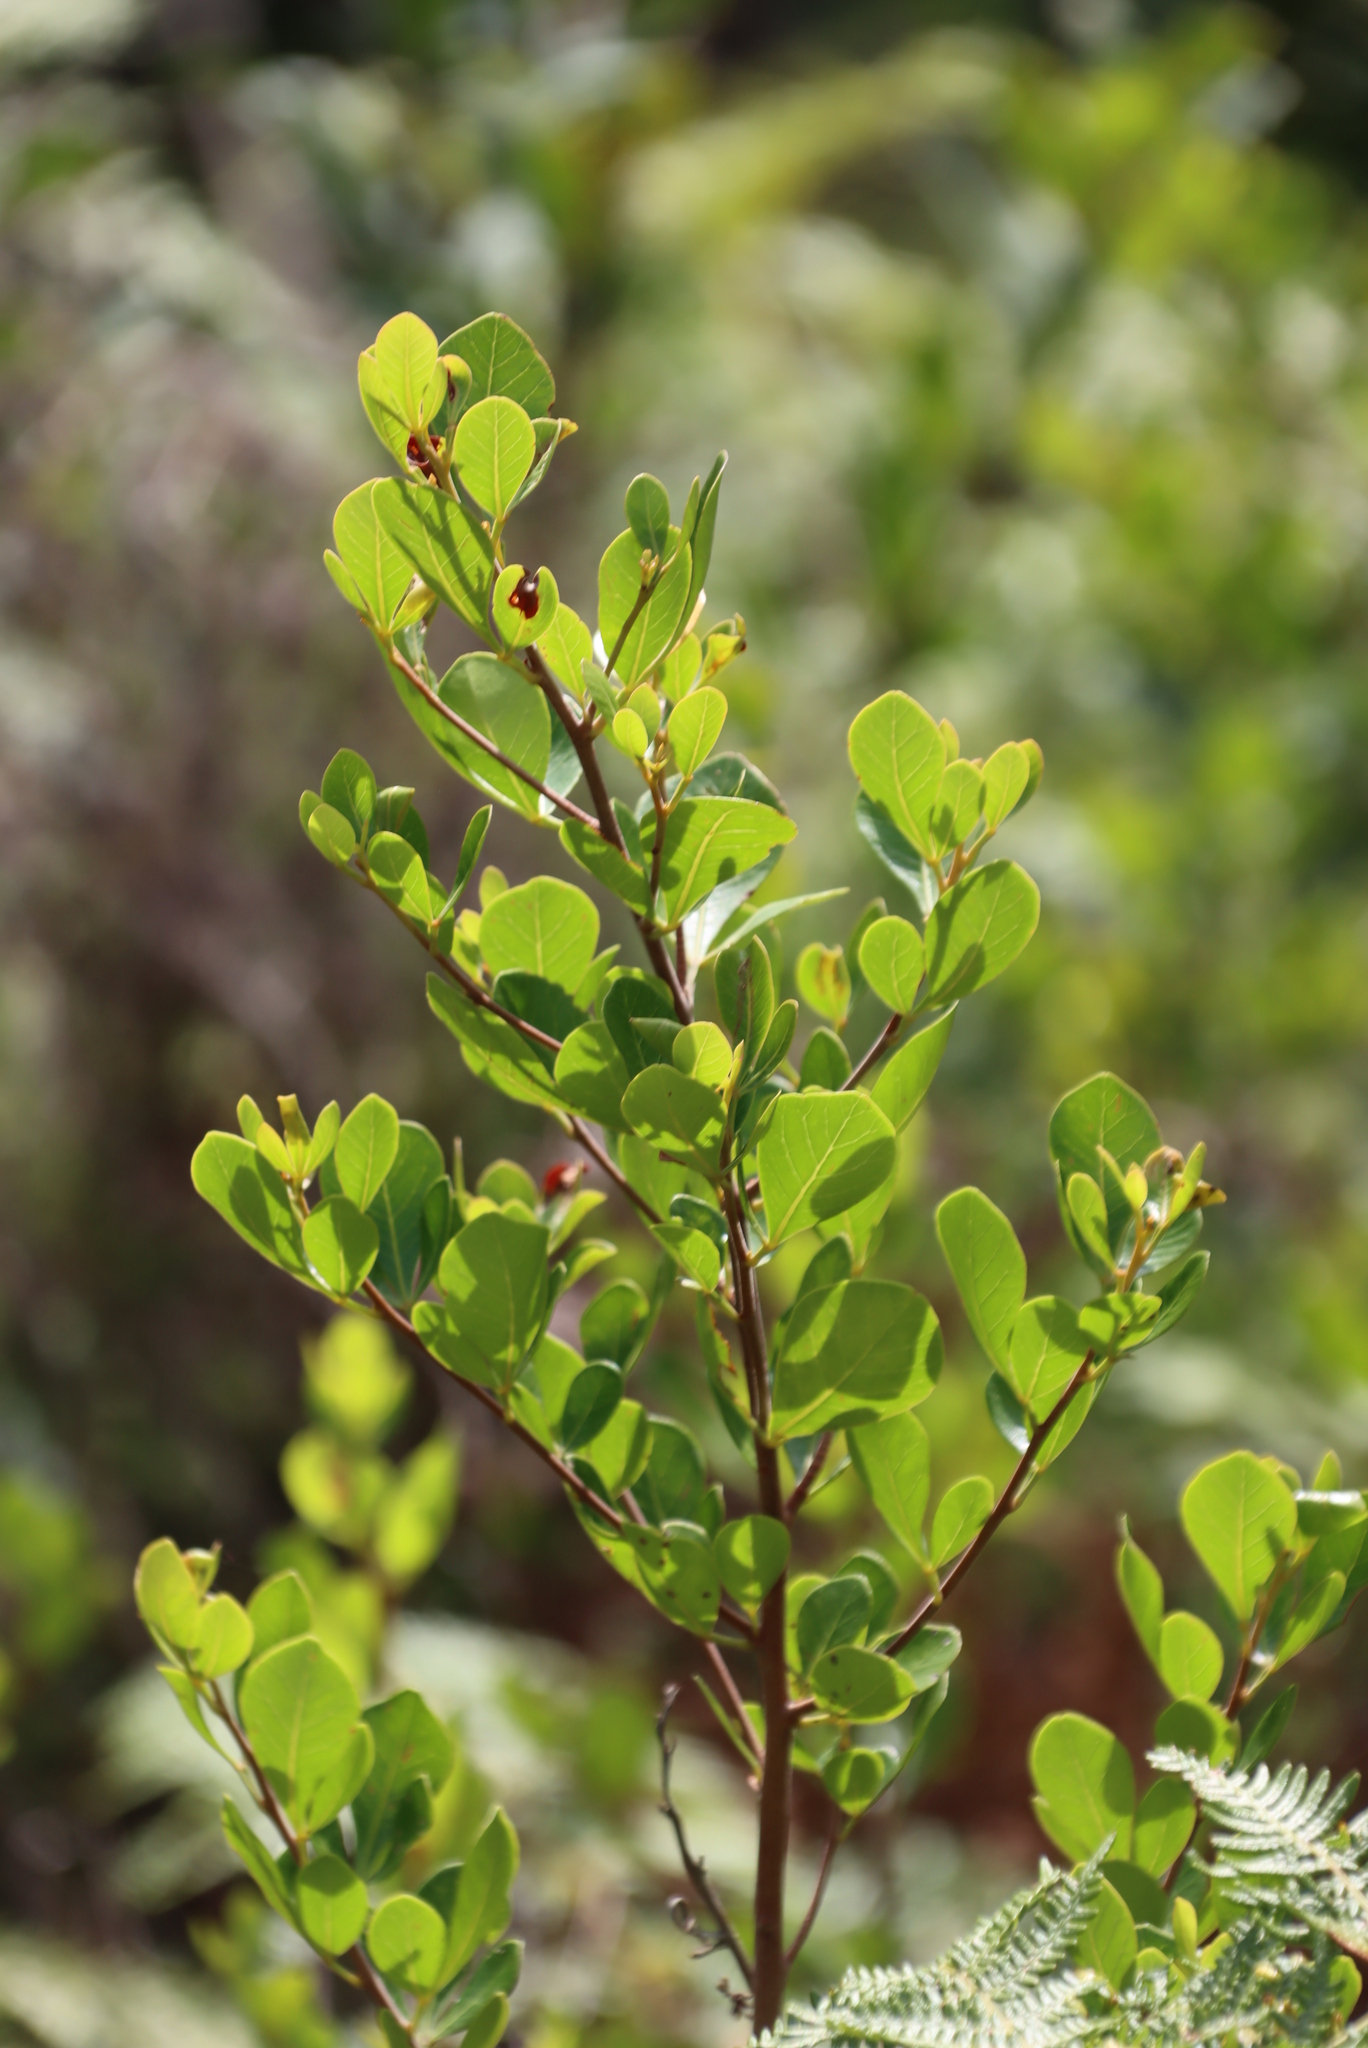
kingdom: Plantae
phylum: Tracheophyta
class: Magnoliopsida
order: Sapindales
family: Anacardiaceae
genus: Searsia
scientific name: Searsia lucida
